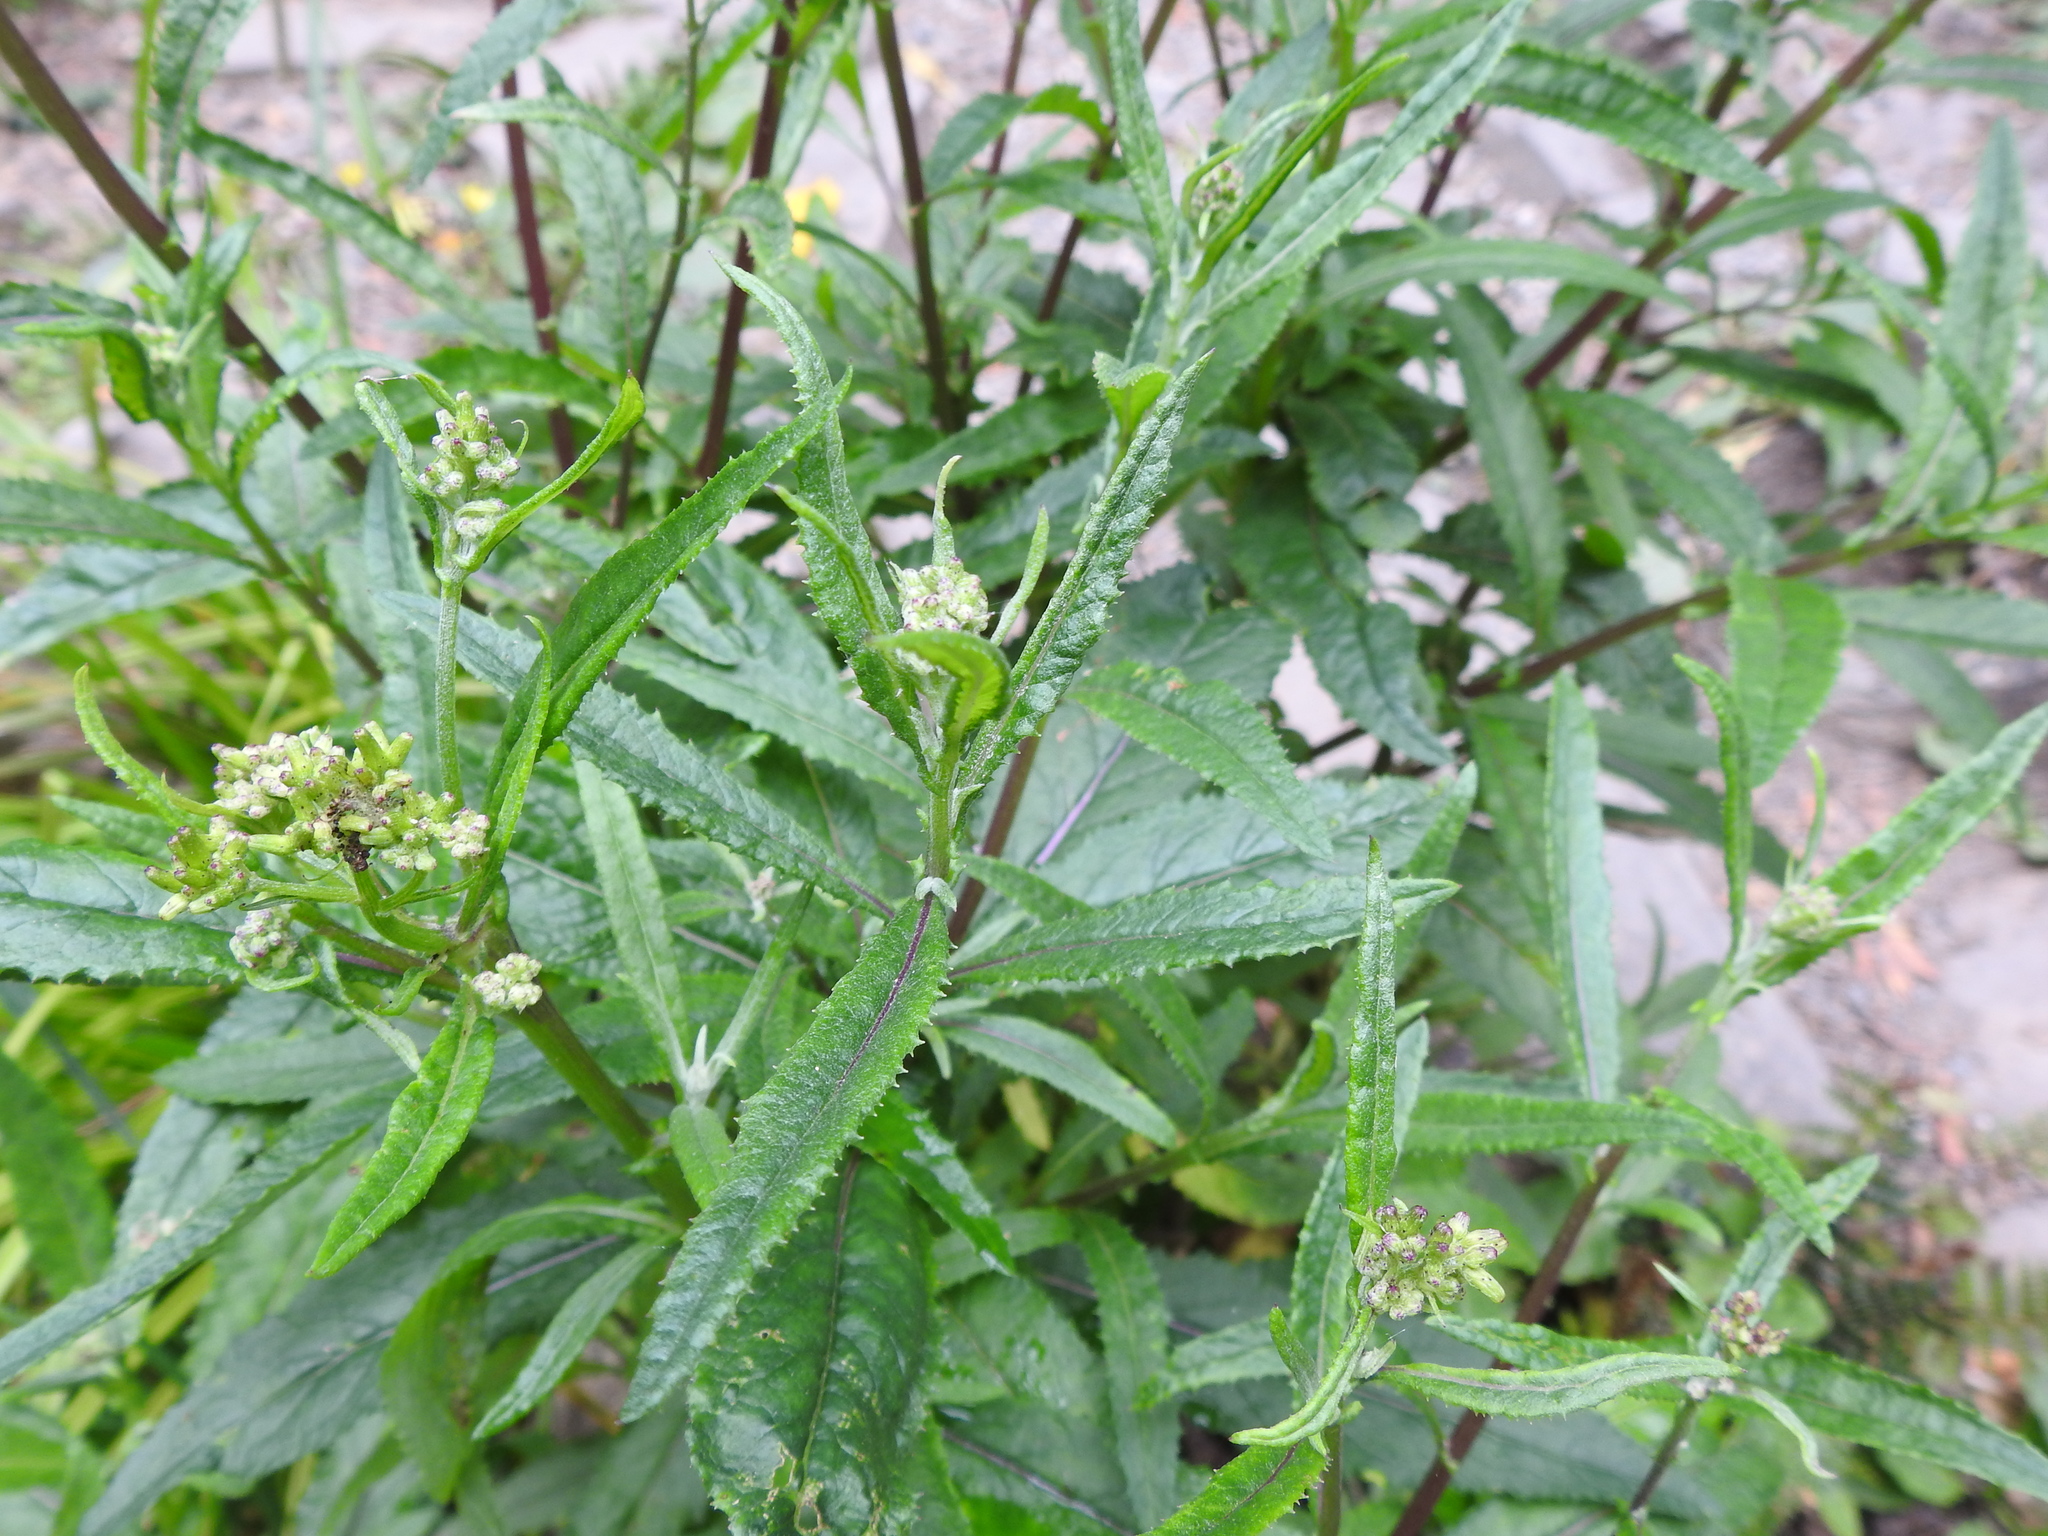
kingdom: Plantae
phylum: Tracheophyta
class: Magnoliopsida
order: Asterales
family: Asteraceae
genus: Senecio
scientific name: Senecio minimus
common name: Toothed fireweed
